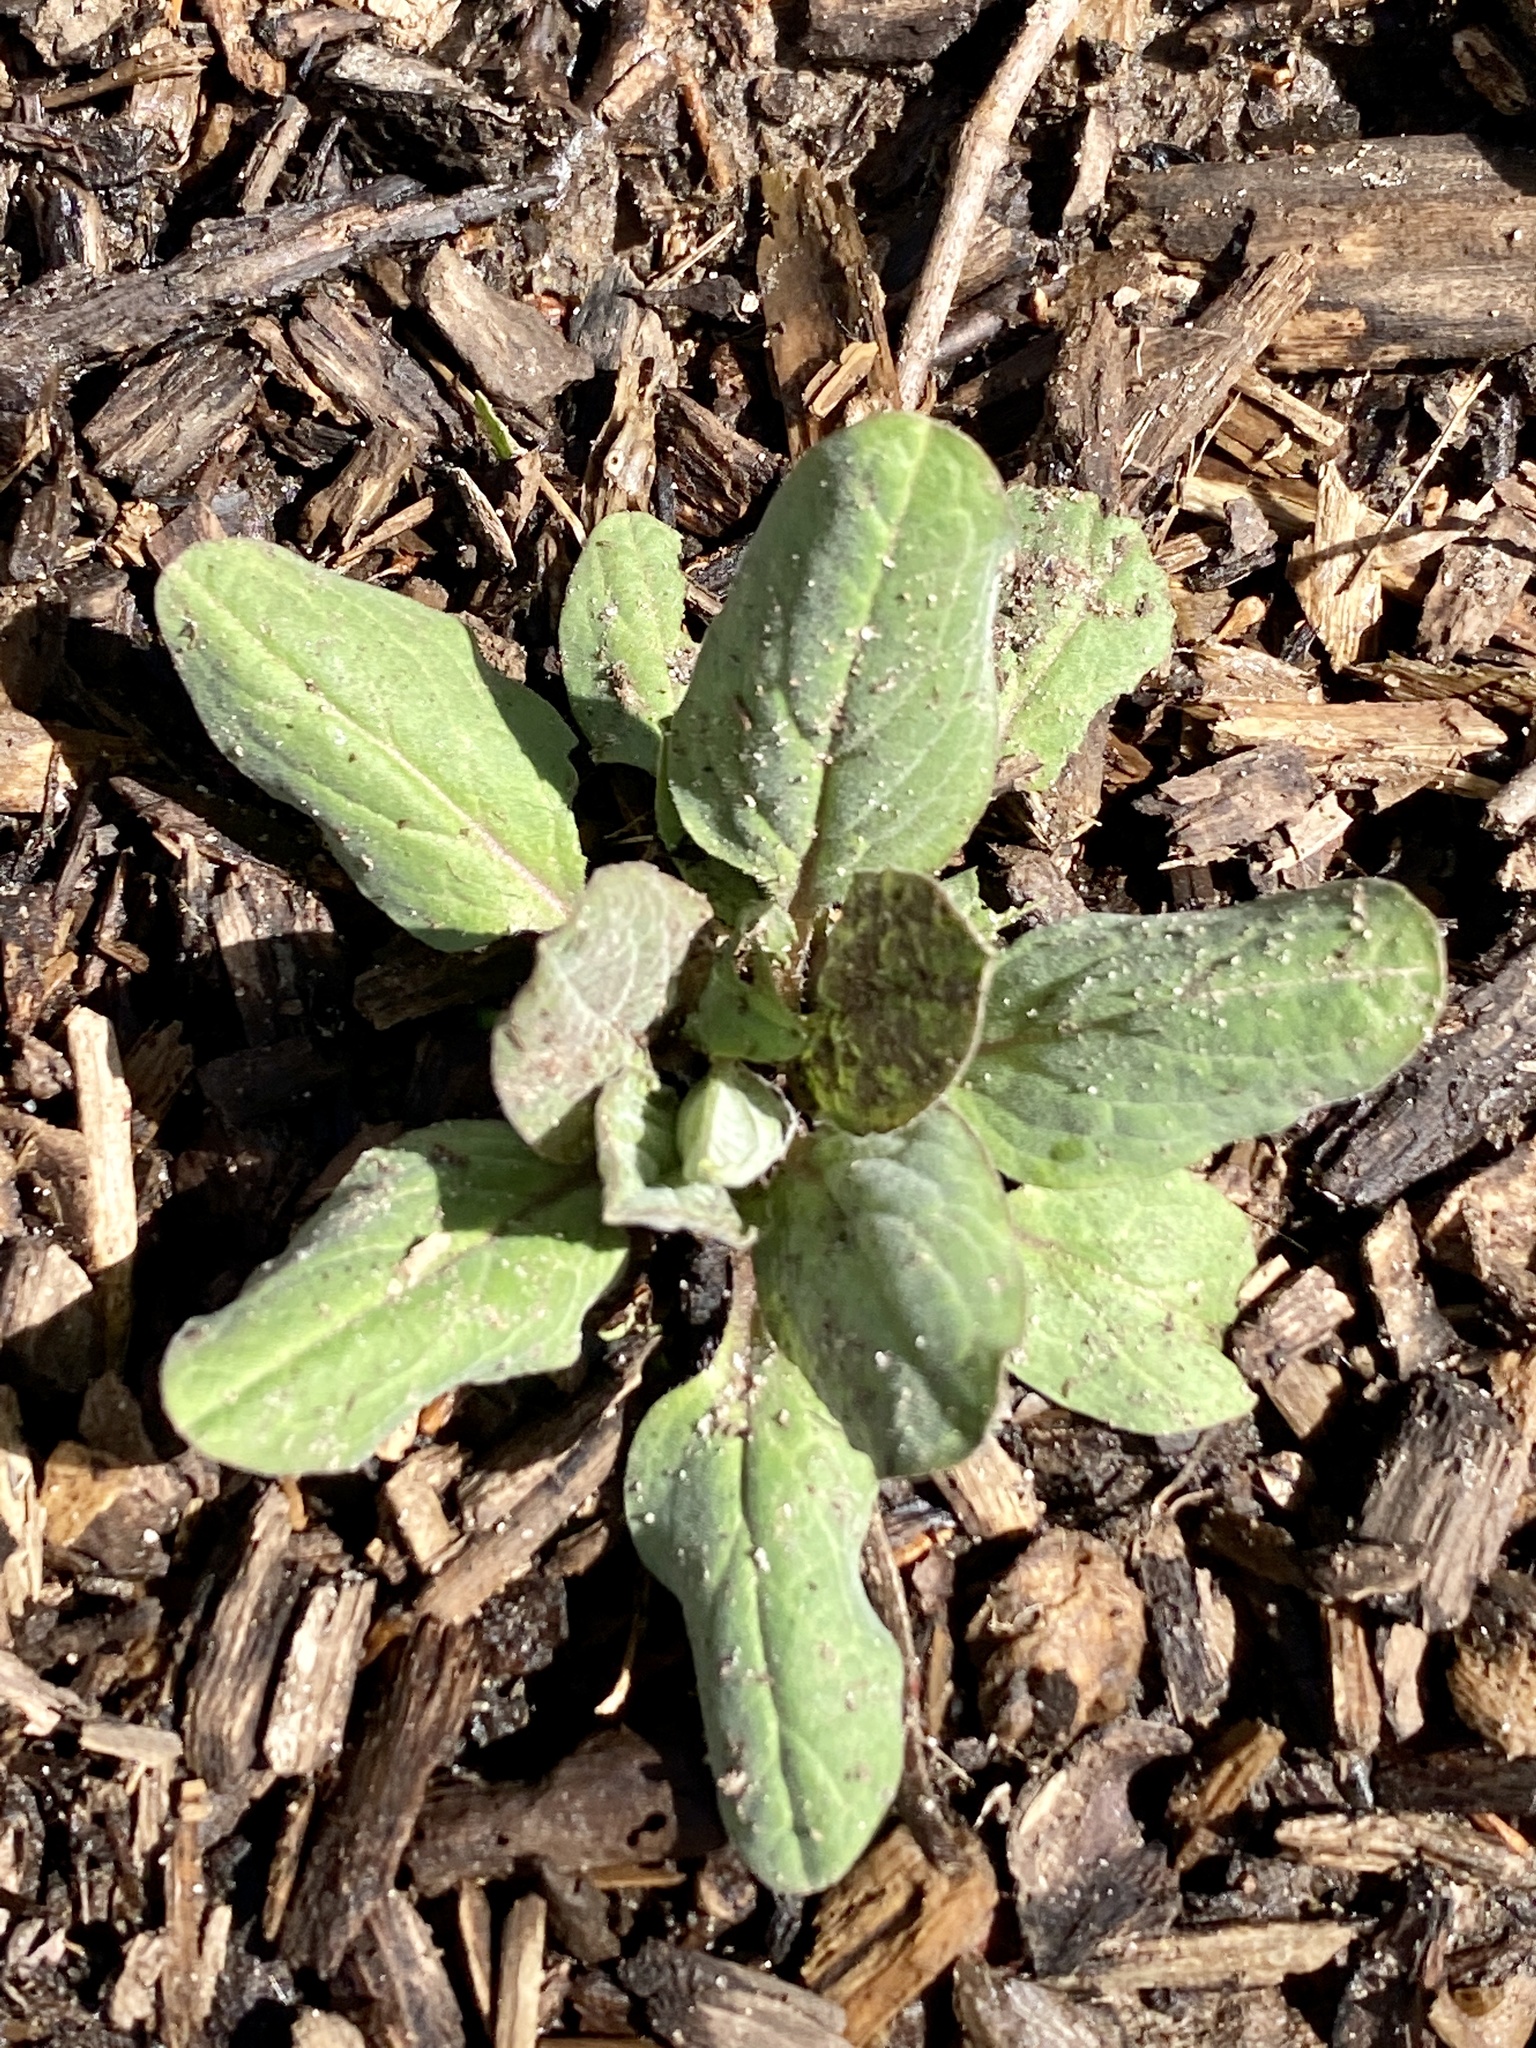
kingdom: Plantae
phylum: Tracheophyta
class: Magnoliopsida
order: Boraginales
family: Boraginaceae
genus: Hackelia
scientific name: Hackelia virginiana
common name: Beggar's-lice
